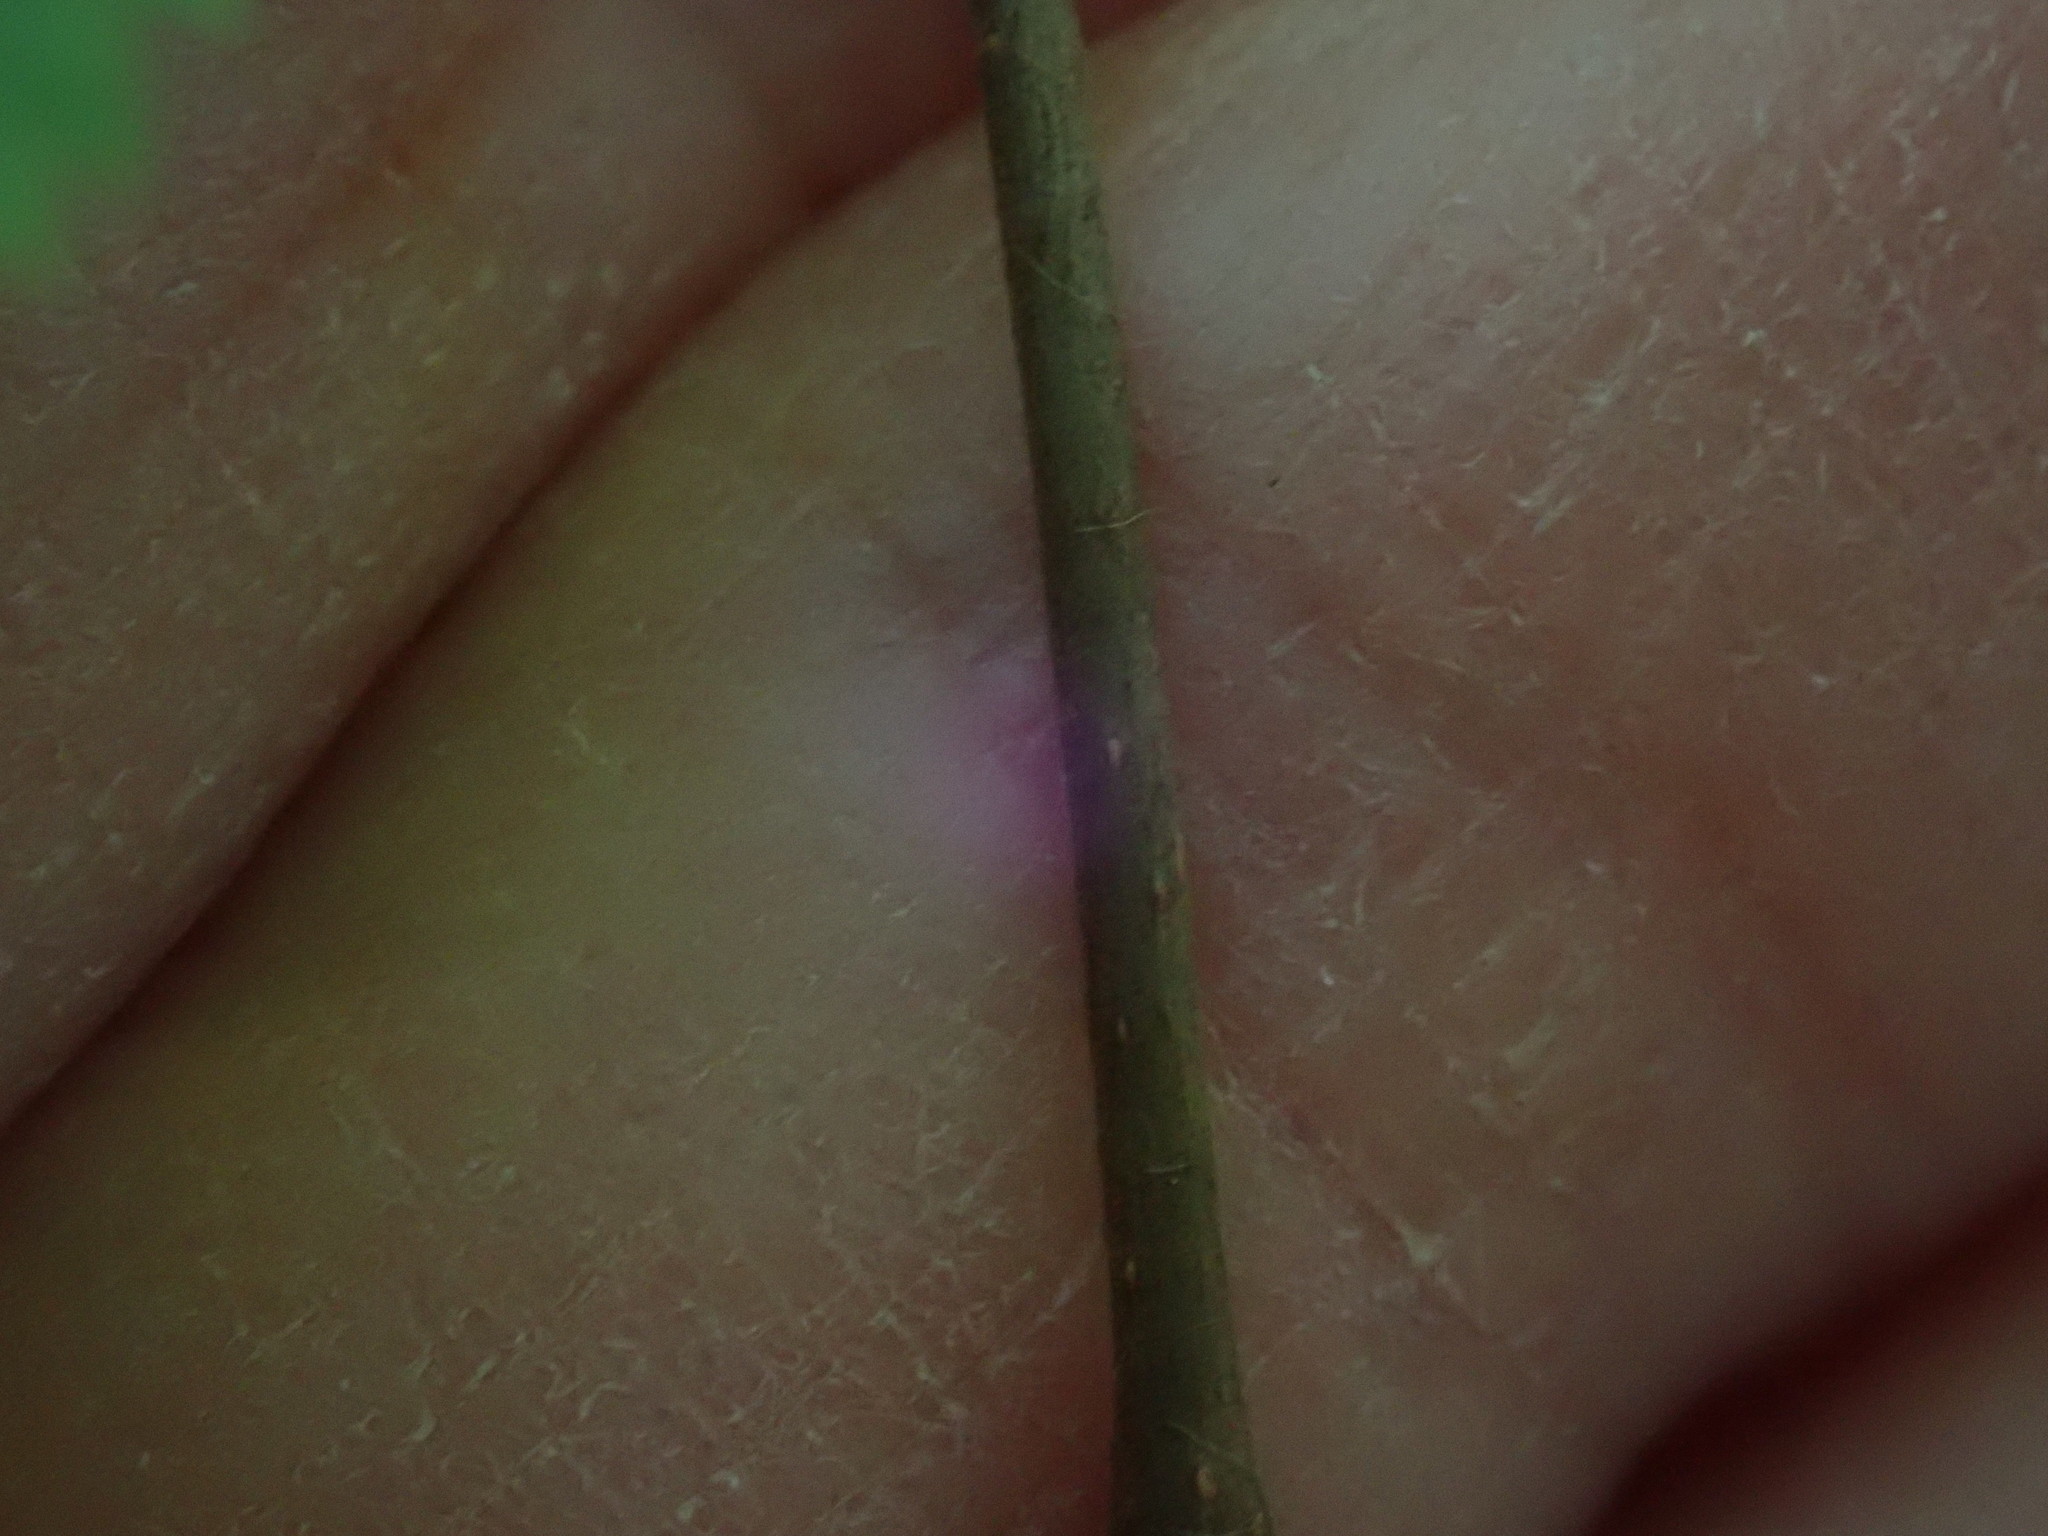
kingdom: Plantae
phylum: Tracheophyta
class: Magnoliopsida
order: Fagales
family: Betulaceae
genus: Corylus
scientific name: Corylus cornuta
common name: Beaked hazel
